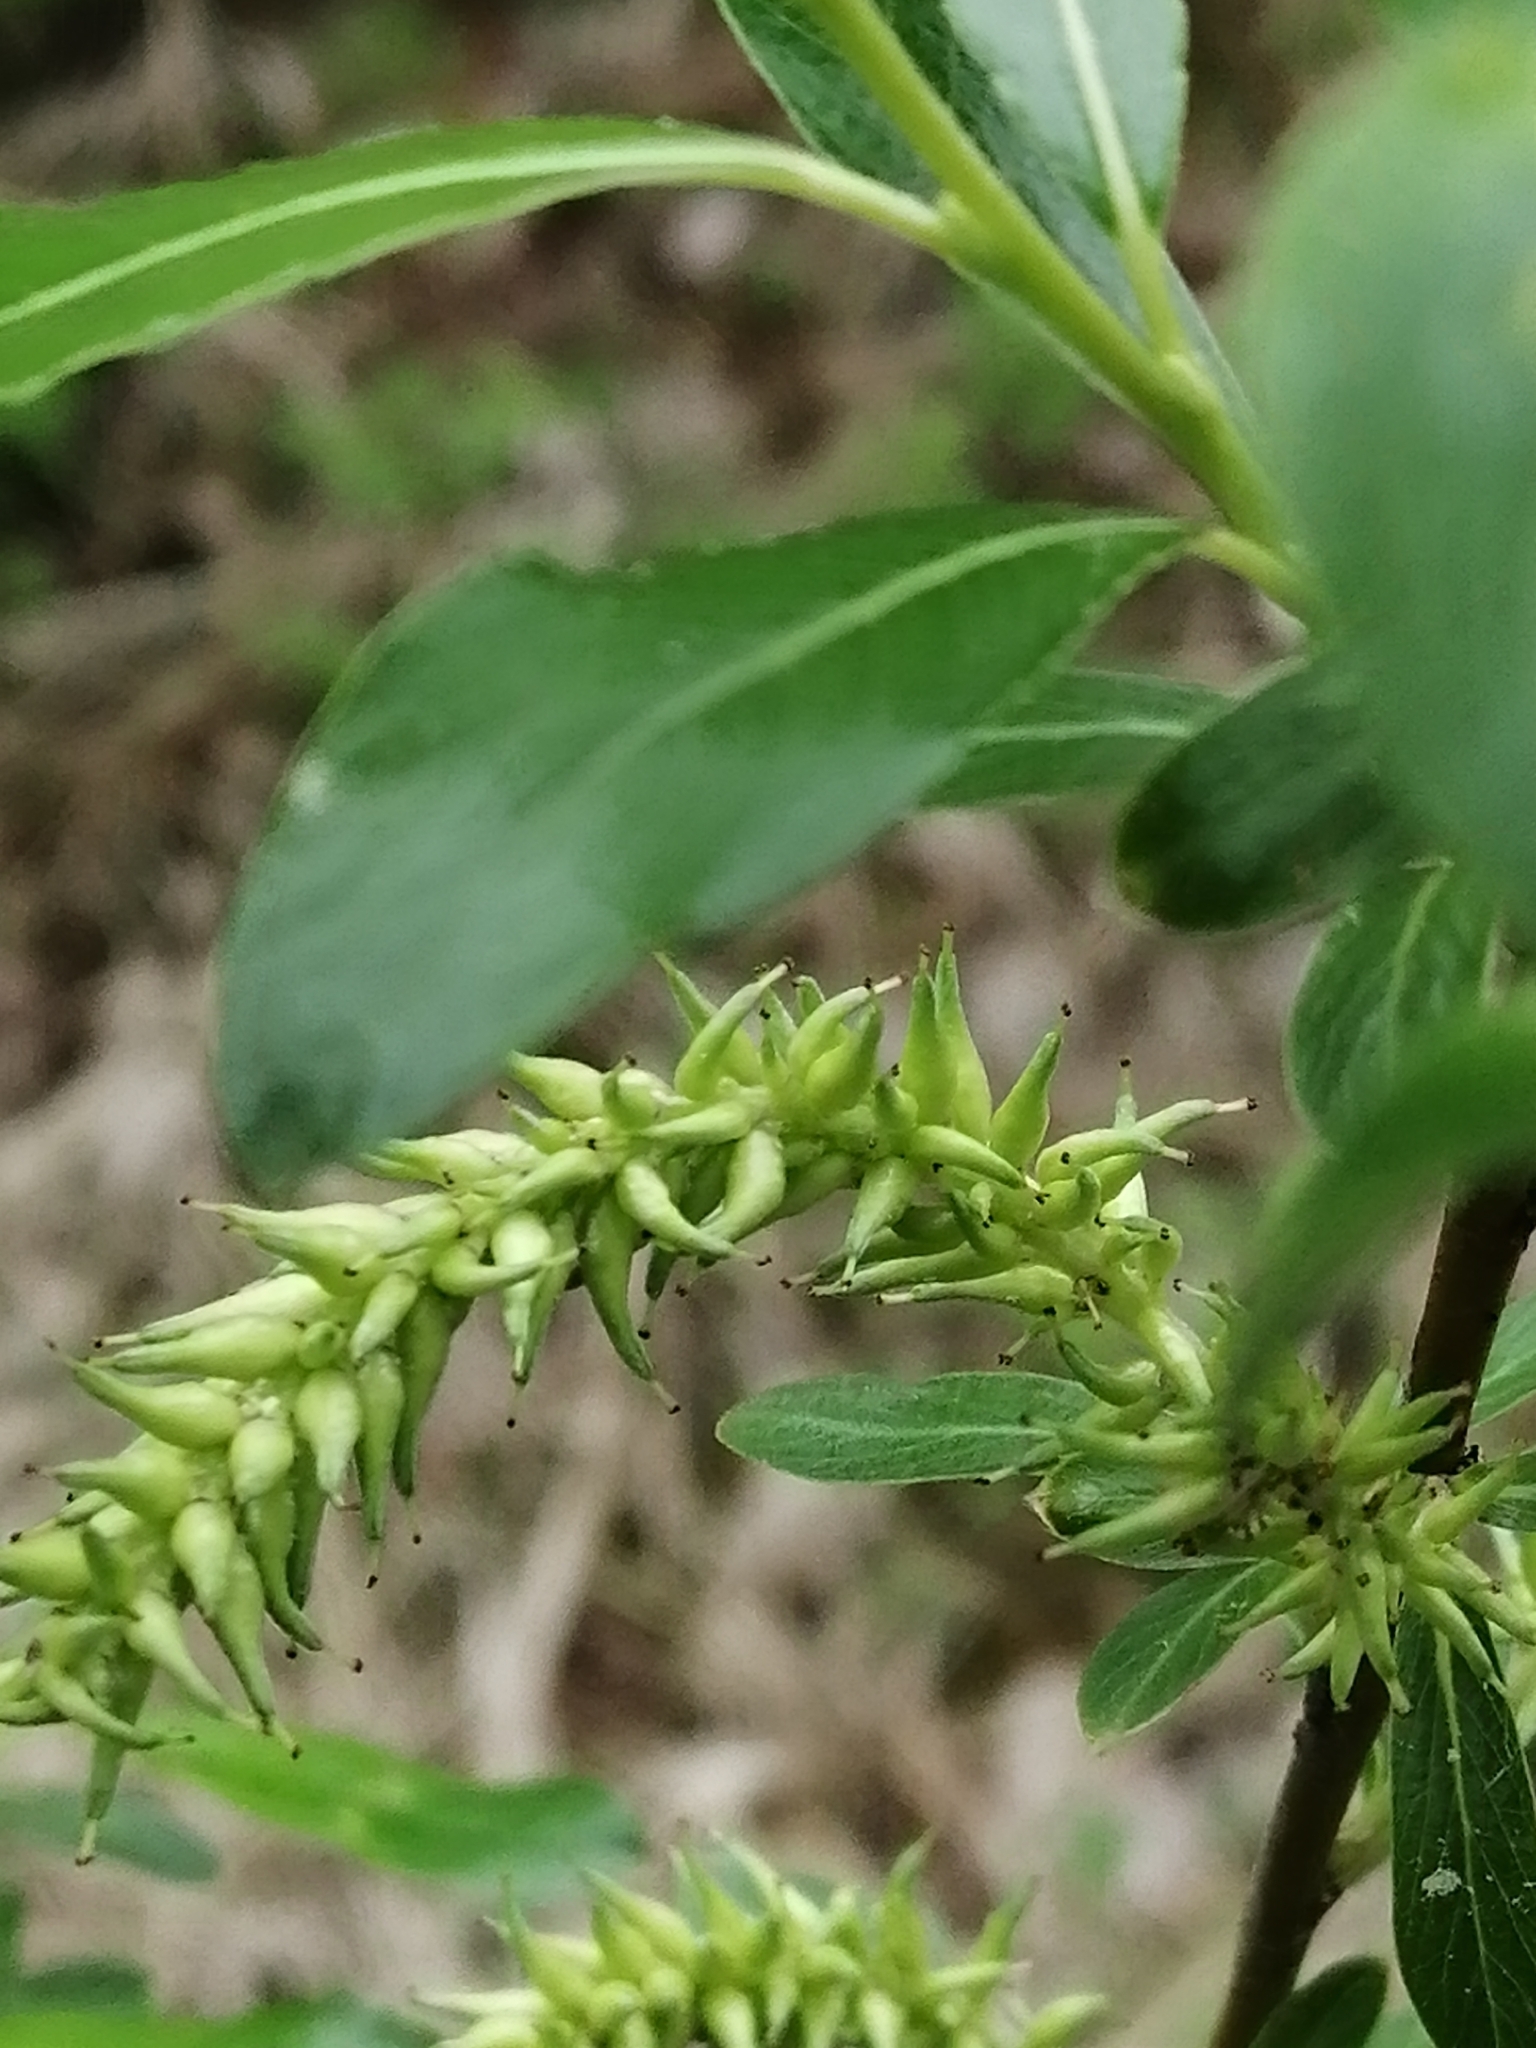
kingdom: Plantae
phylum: Tracheophyta
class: Magnoliopsida
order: Malpighiales
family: Salicaceae
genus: Salix
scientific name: Salix rhamnifolia
